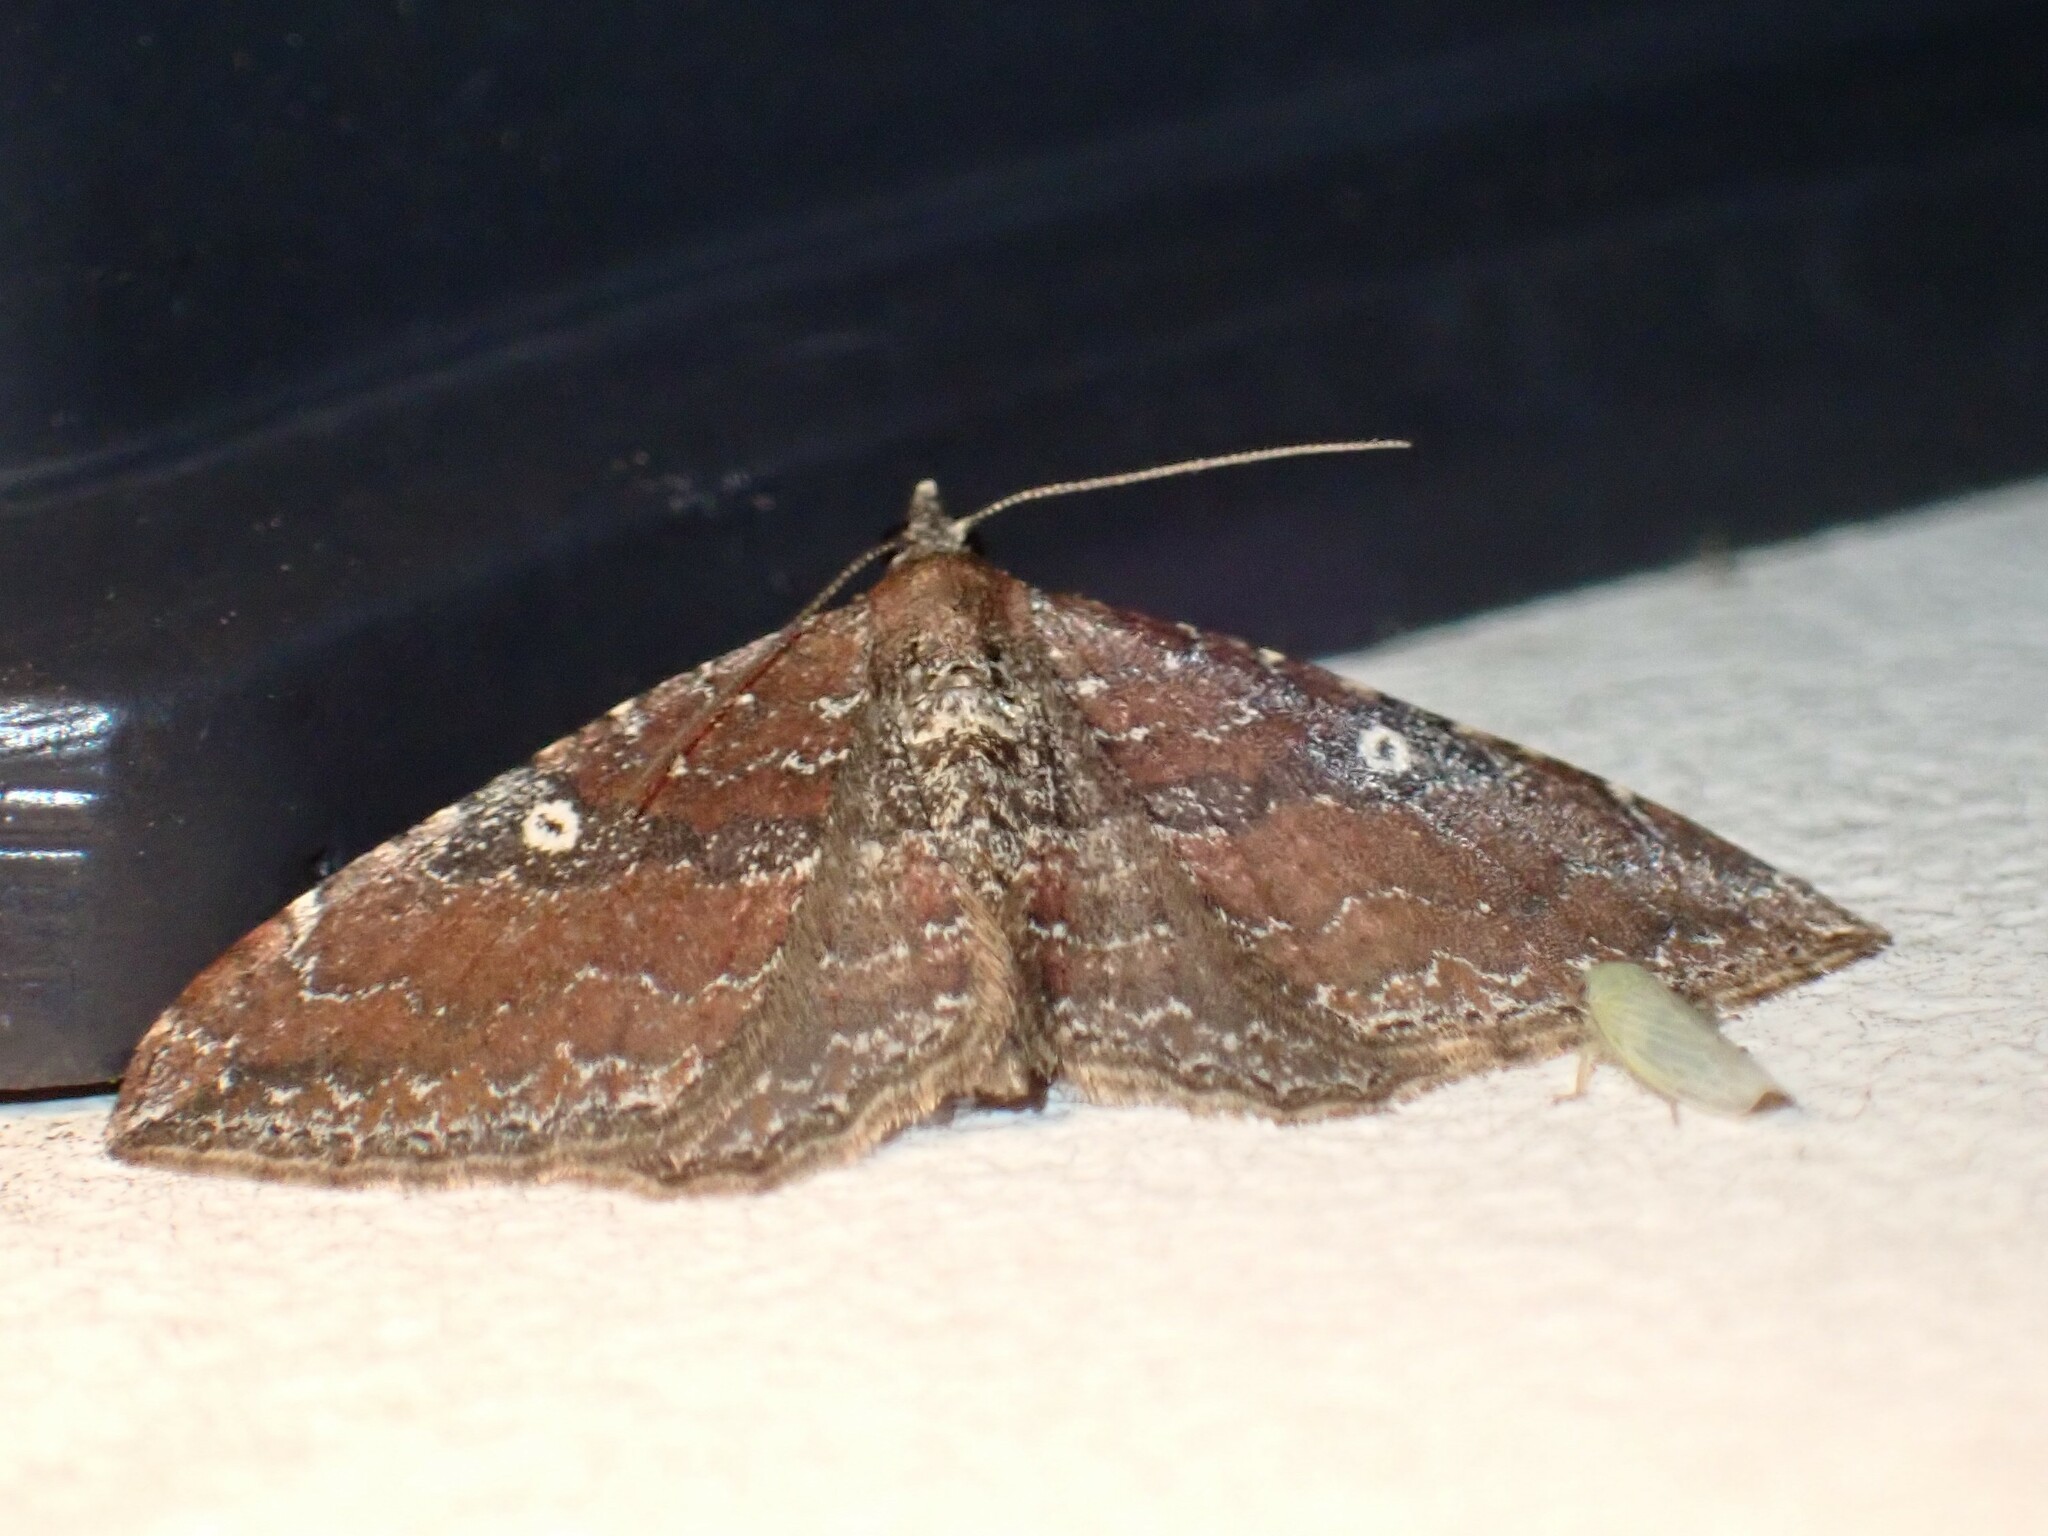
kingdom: Animalia
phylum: Arthropoda
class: Insecta
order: Lepidoptera
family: Geometridae
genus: Orthonama
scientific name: Orthonama obstipata
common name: The gem
